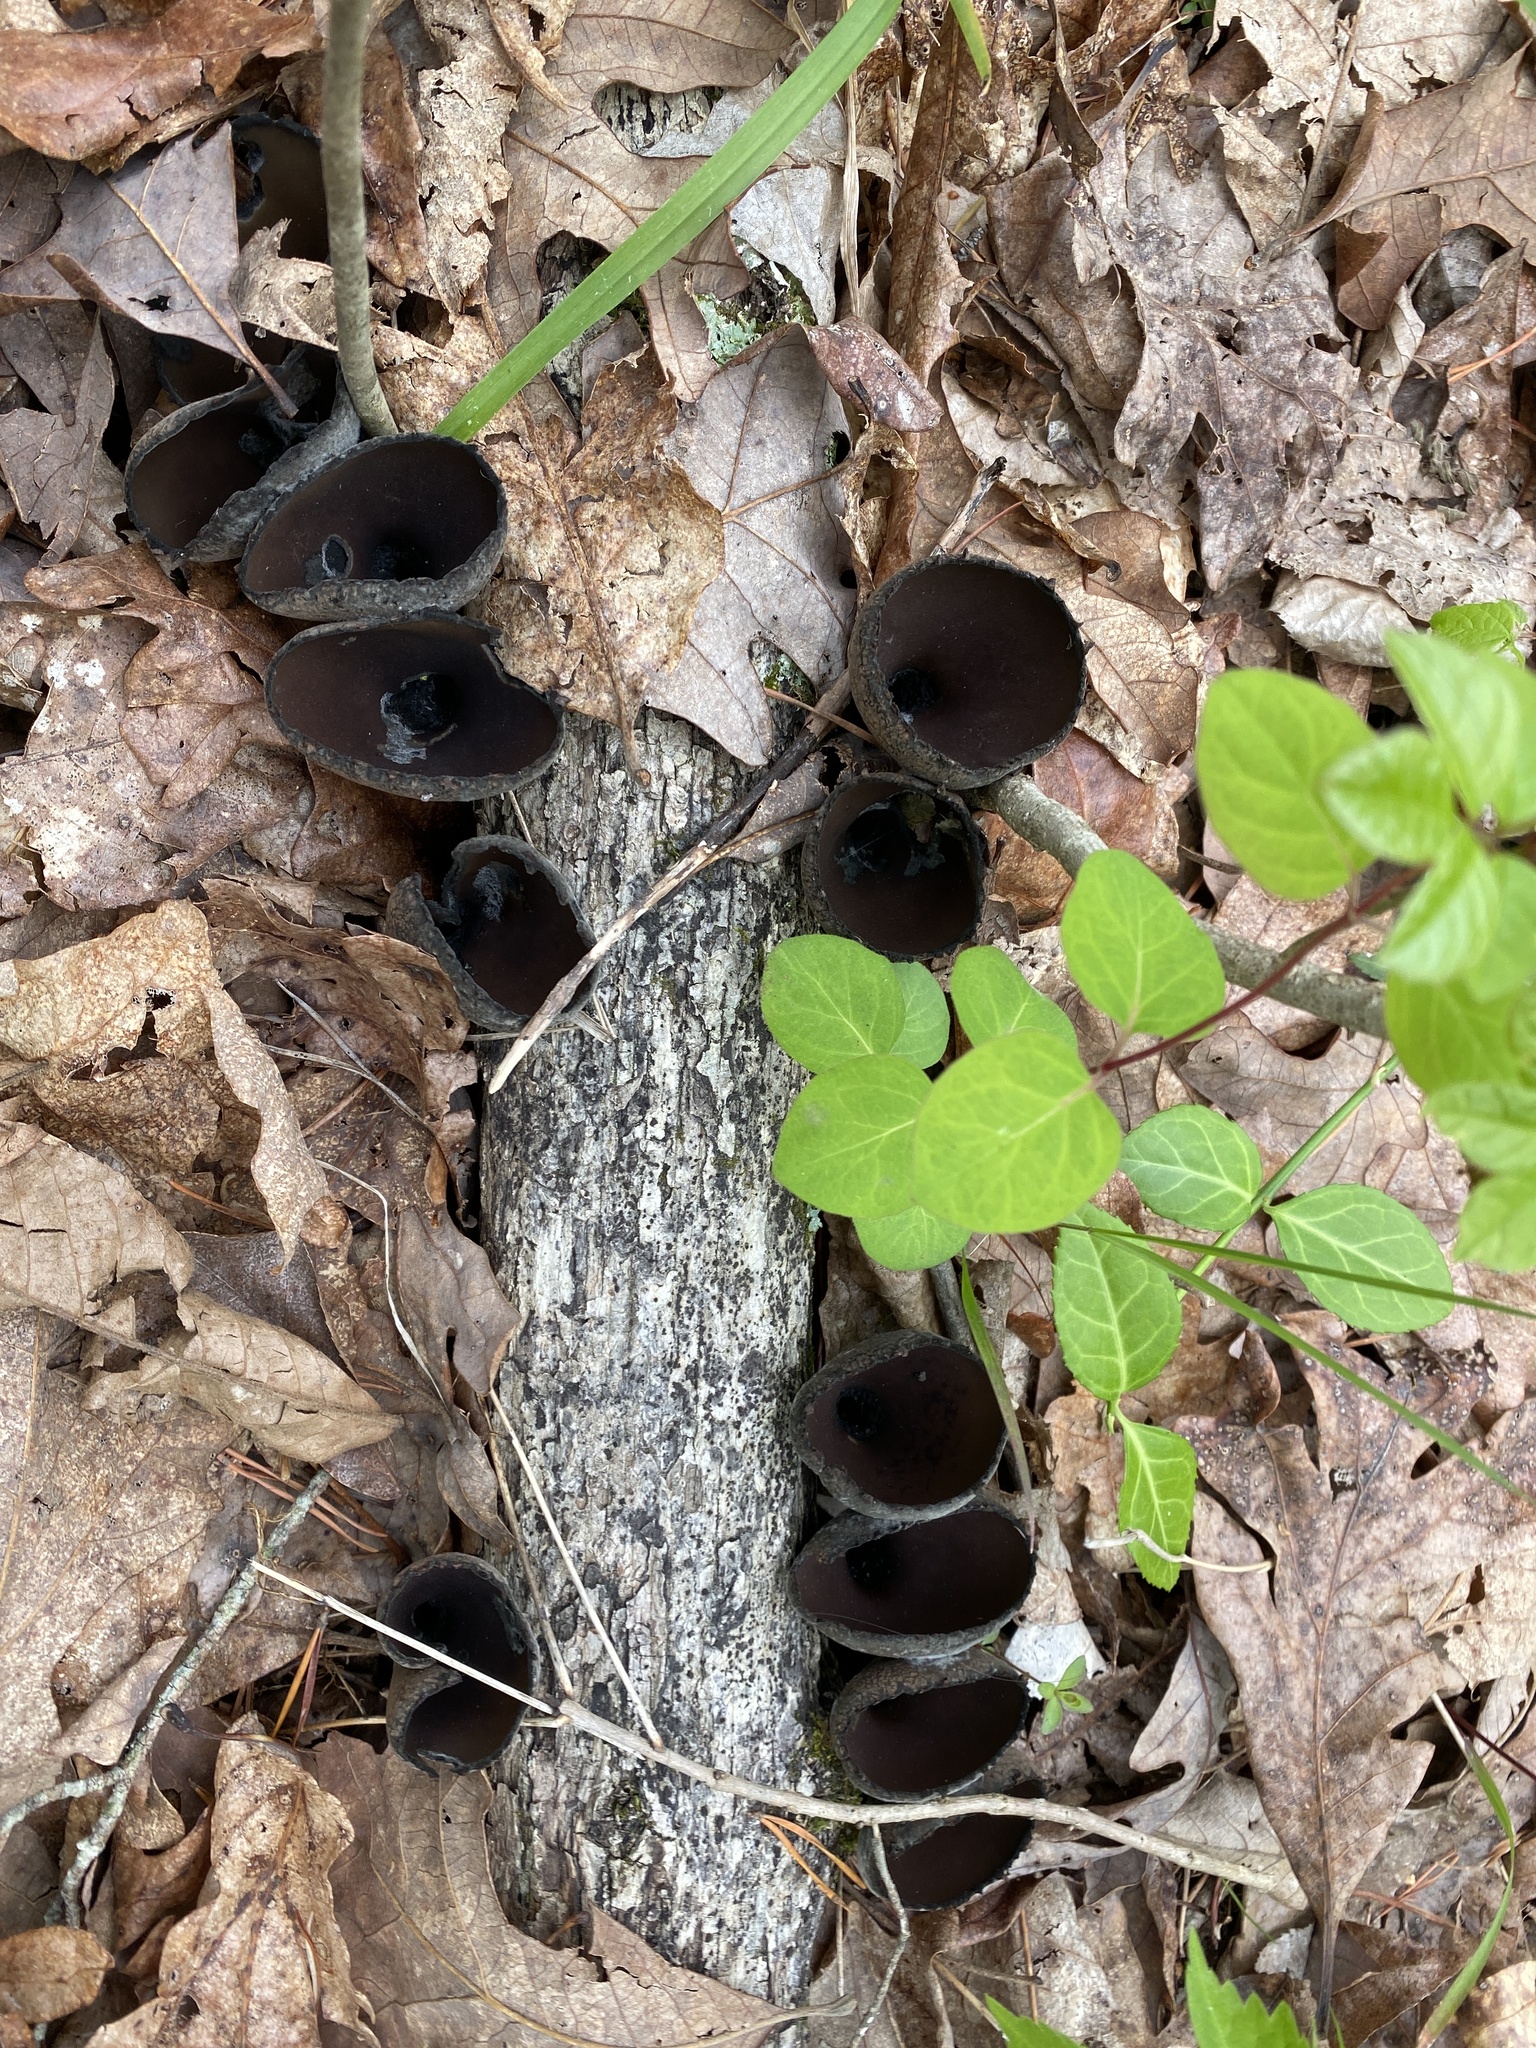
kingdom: Fungi
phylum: Ascomycota
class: Pezizomycetes
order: Pezizales
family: Sarcosomataceae
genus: Urnula
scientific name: Urnula craterium
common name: Devil's urn
